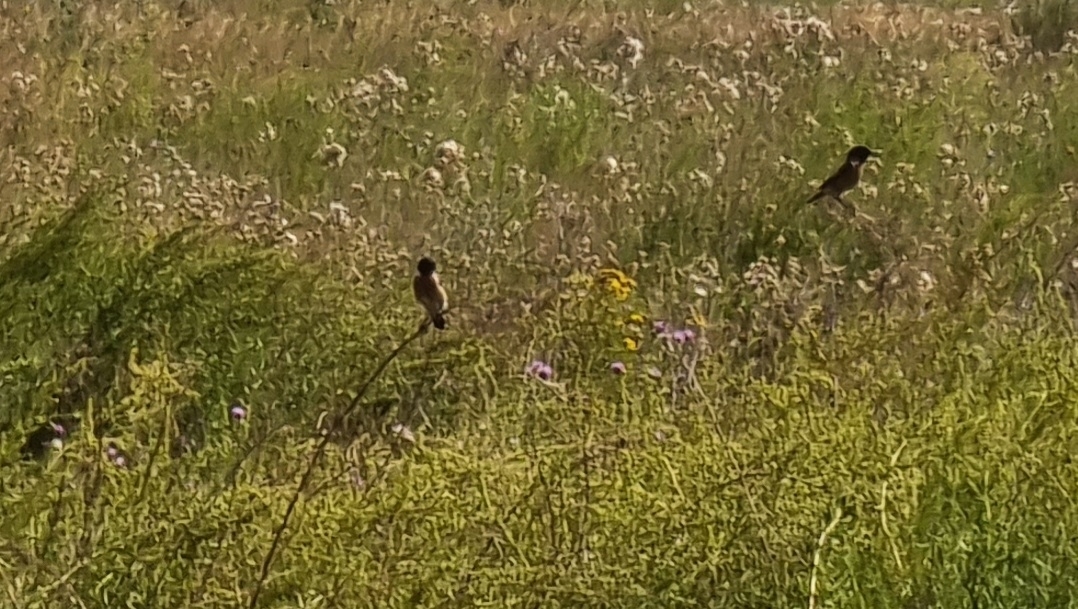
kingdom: Animalia
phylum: Chordata
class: Aves
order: Passeriformes
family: Muscicapidae
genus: Saxicola
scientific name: Saxicola maurus
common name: Siberian stonechat
